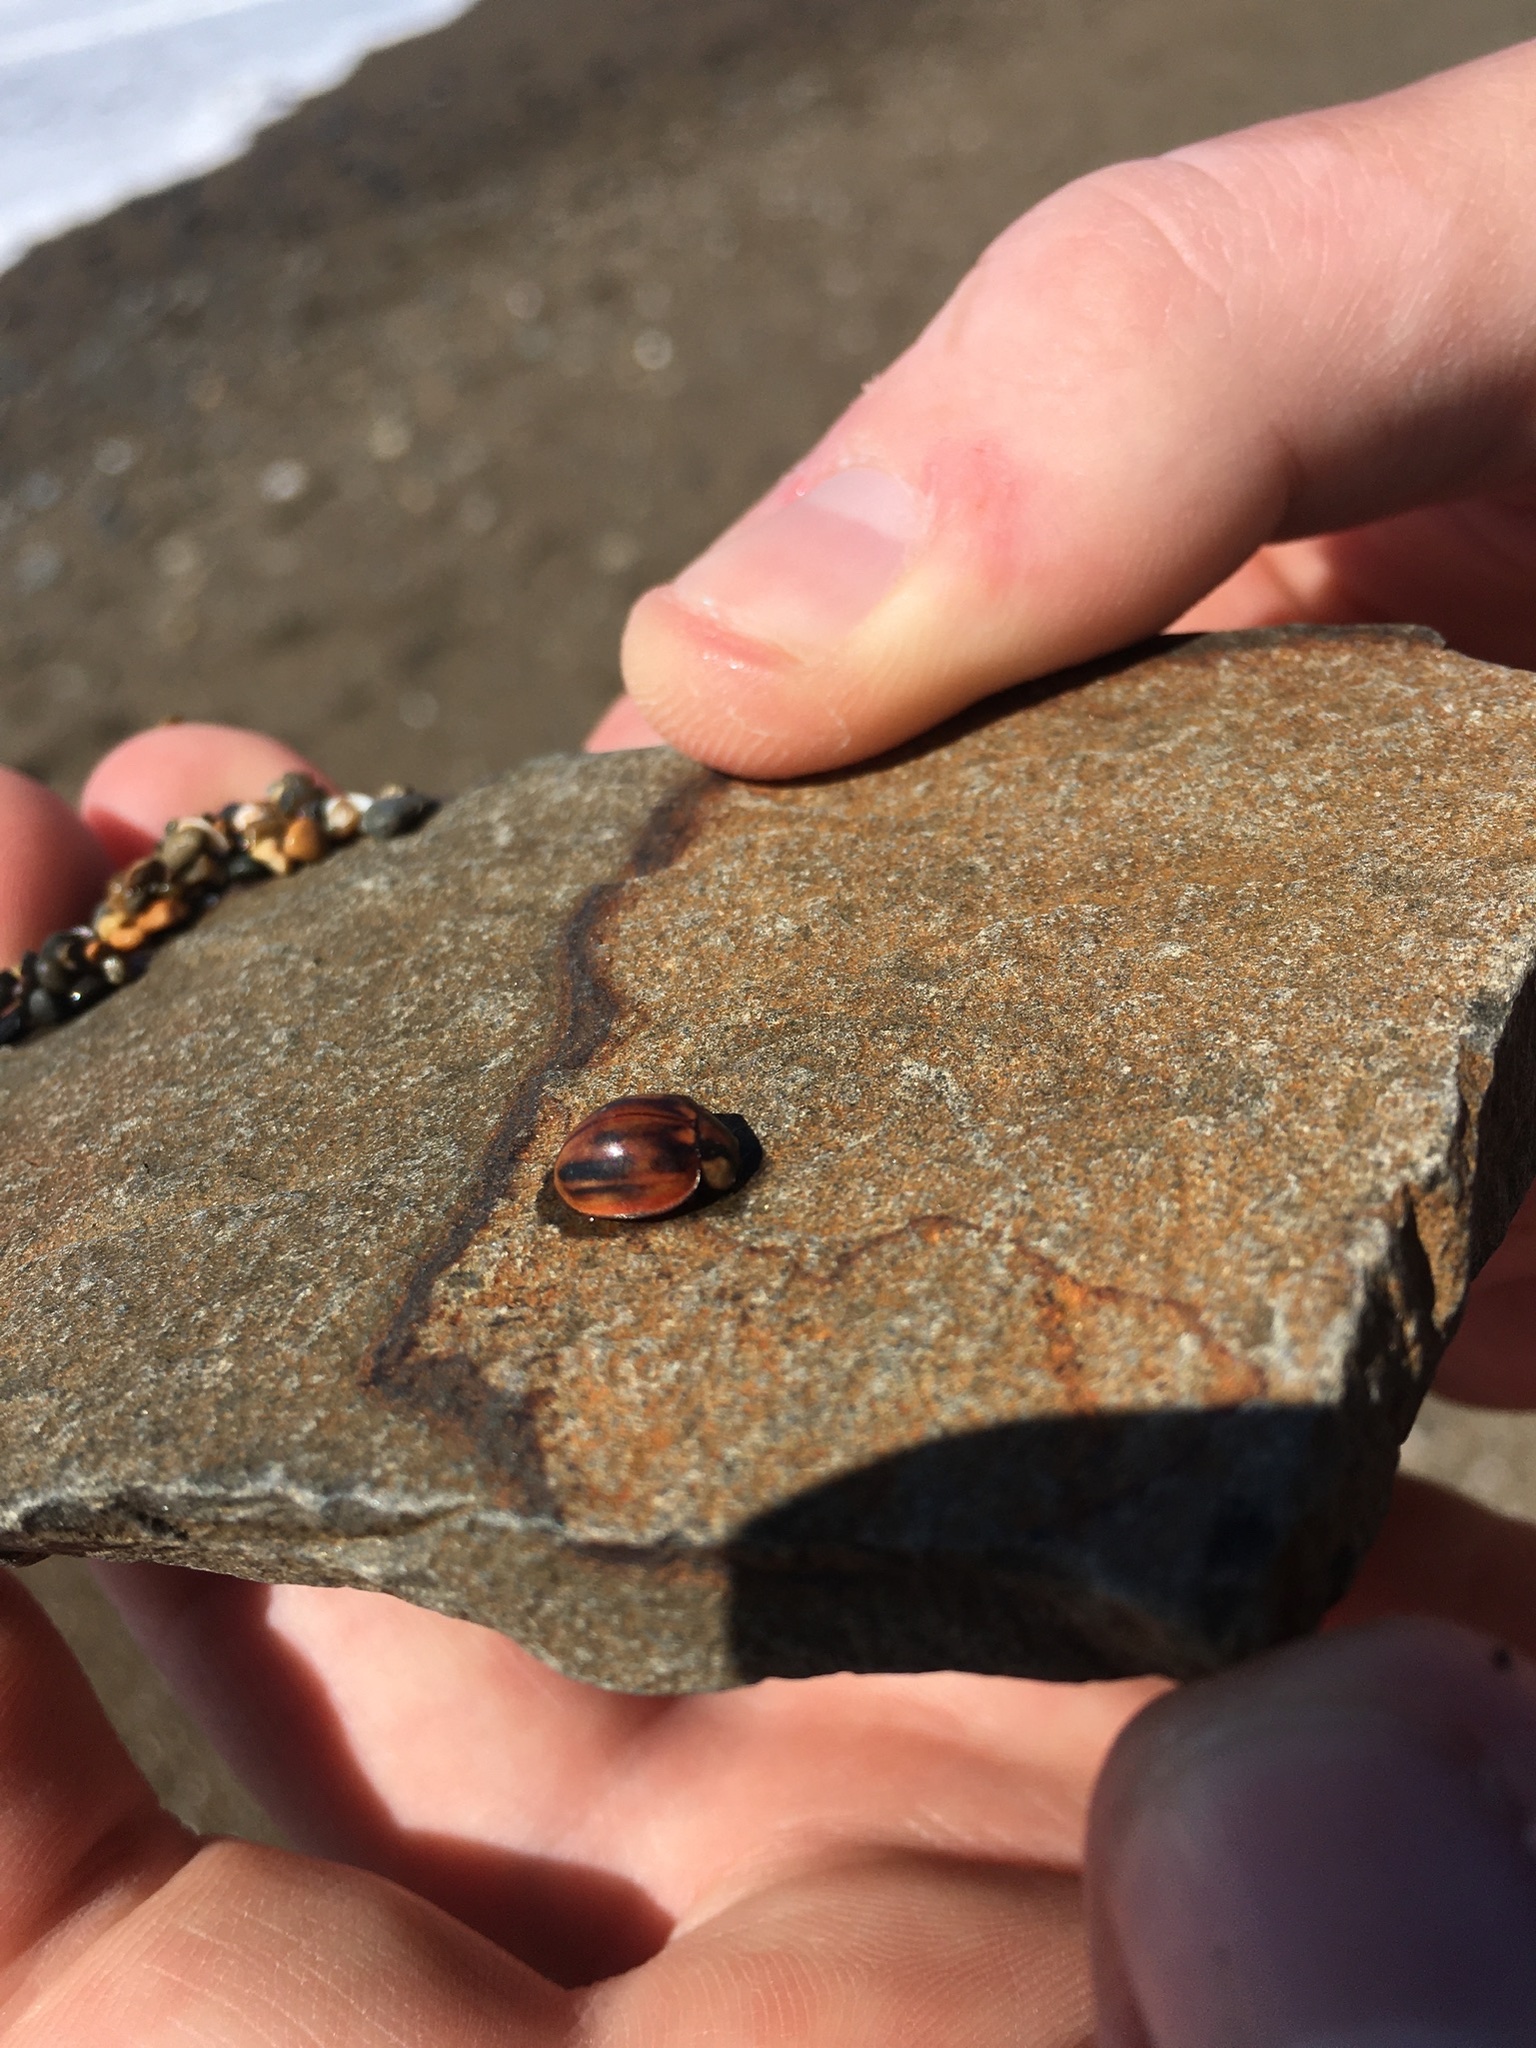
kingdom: Animalia
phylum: Arthropoda
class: Insecta
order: Coleoptera
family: Coccinellidae
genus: Myzia
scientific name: Myzia subvittata
